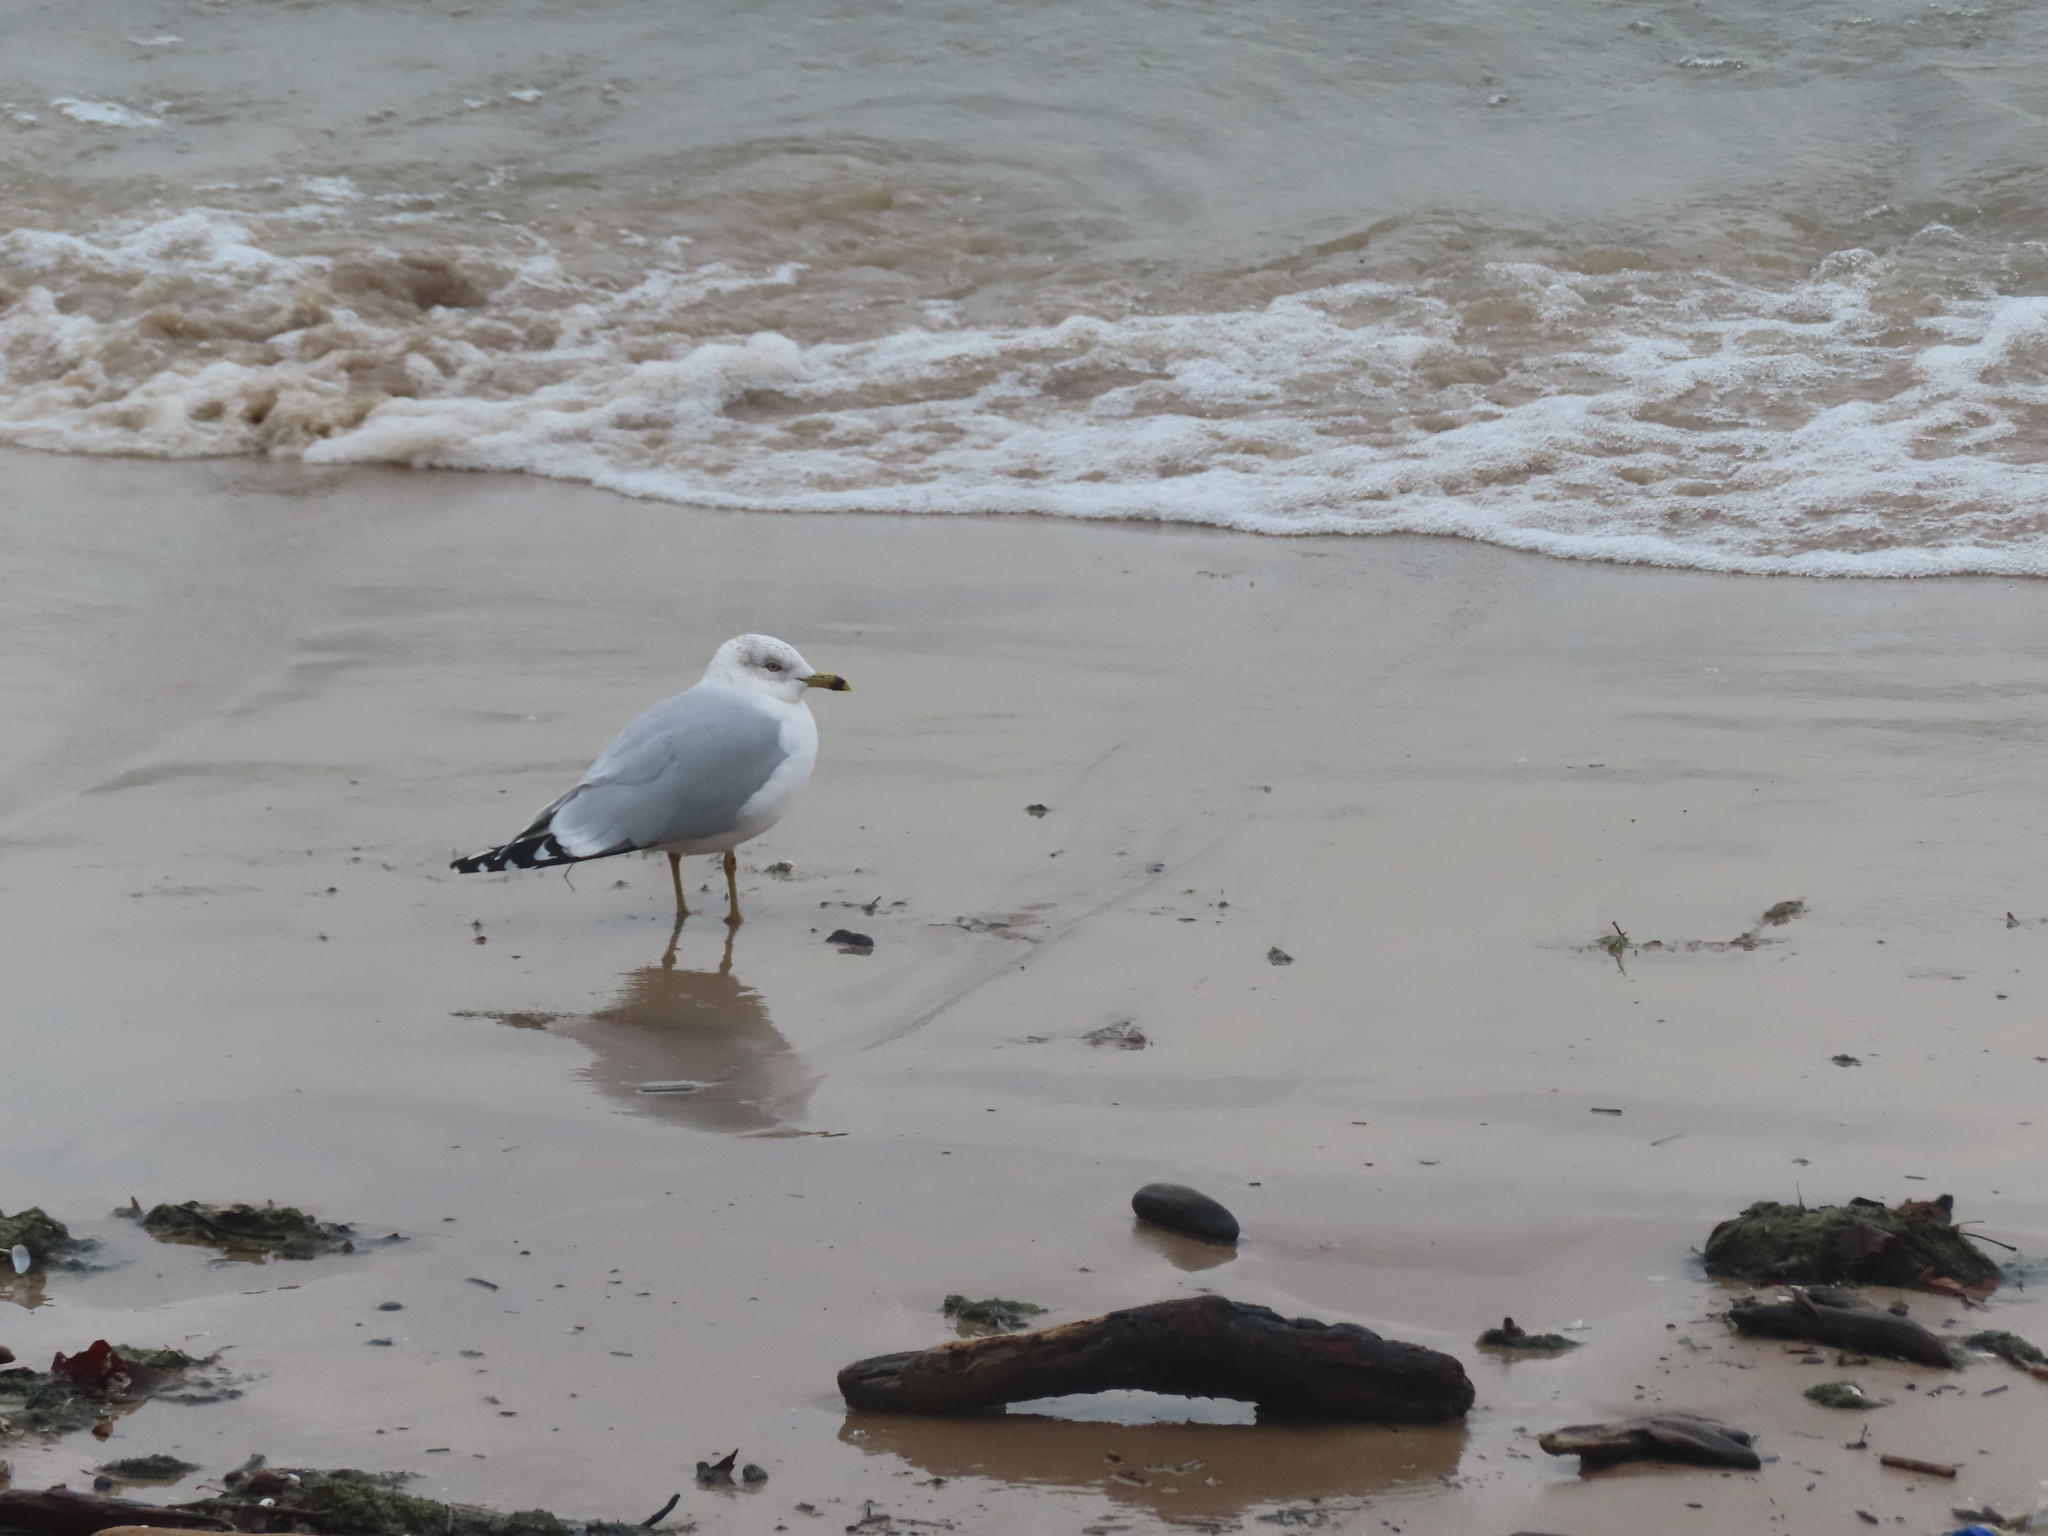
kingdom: Animalia
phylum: Chordata
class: Aves
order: Charadriiformes
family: Laridae
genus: Larus
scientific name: Larus delawarensis
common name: Ring-billed gull
